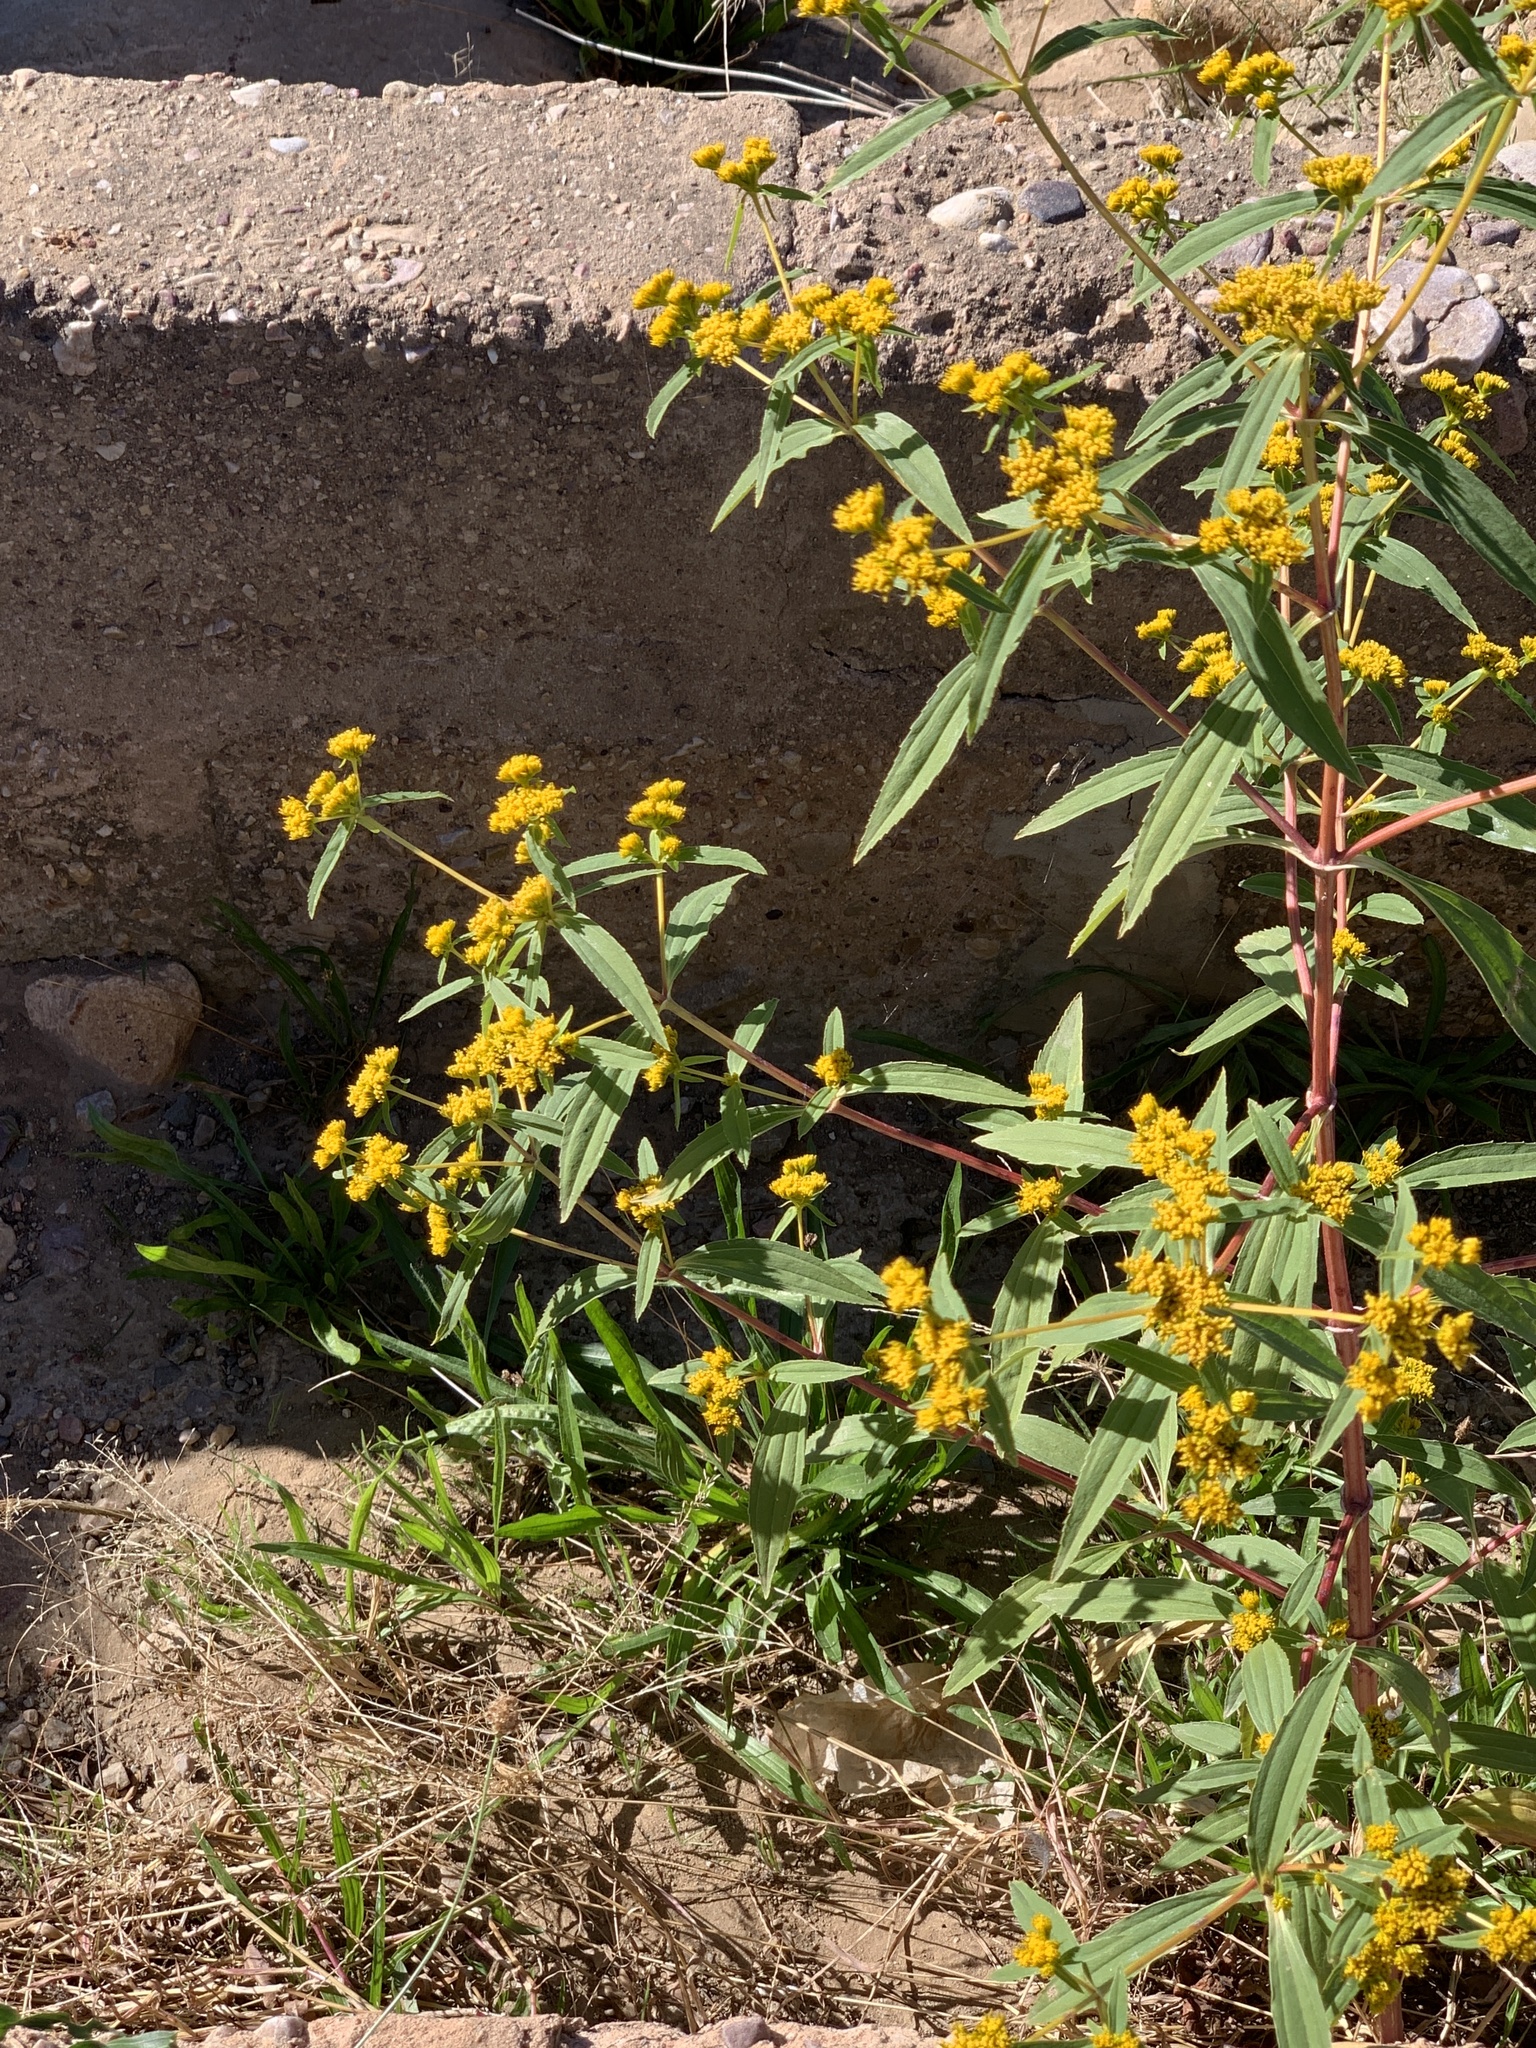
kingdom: Plantae
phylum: Tracheophyta
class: Magnoliopsida
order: Asterales
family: Asteraceae
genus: Flaveria
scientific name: Flaveria bidentis
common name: Coastal plain yellowtops
